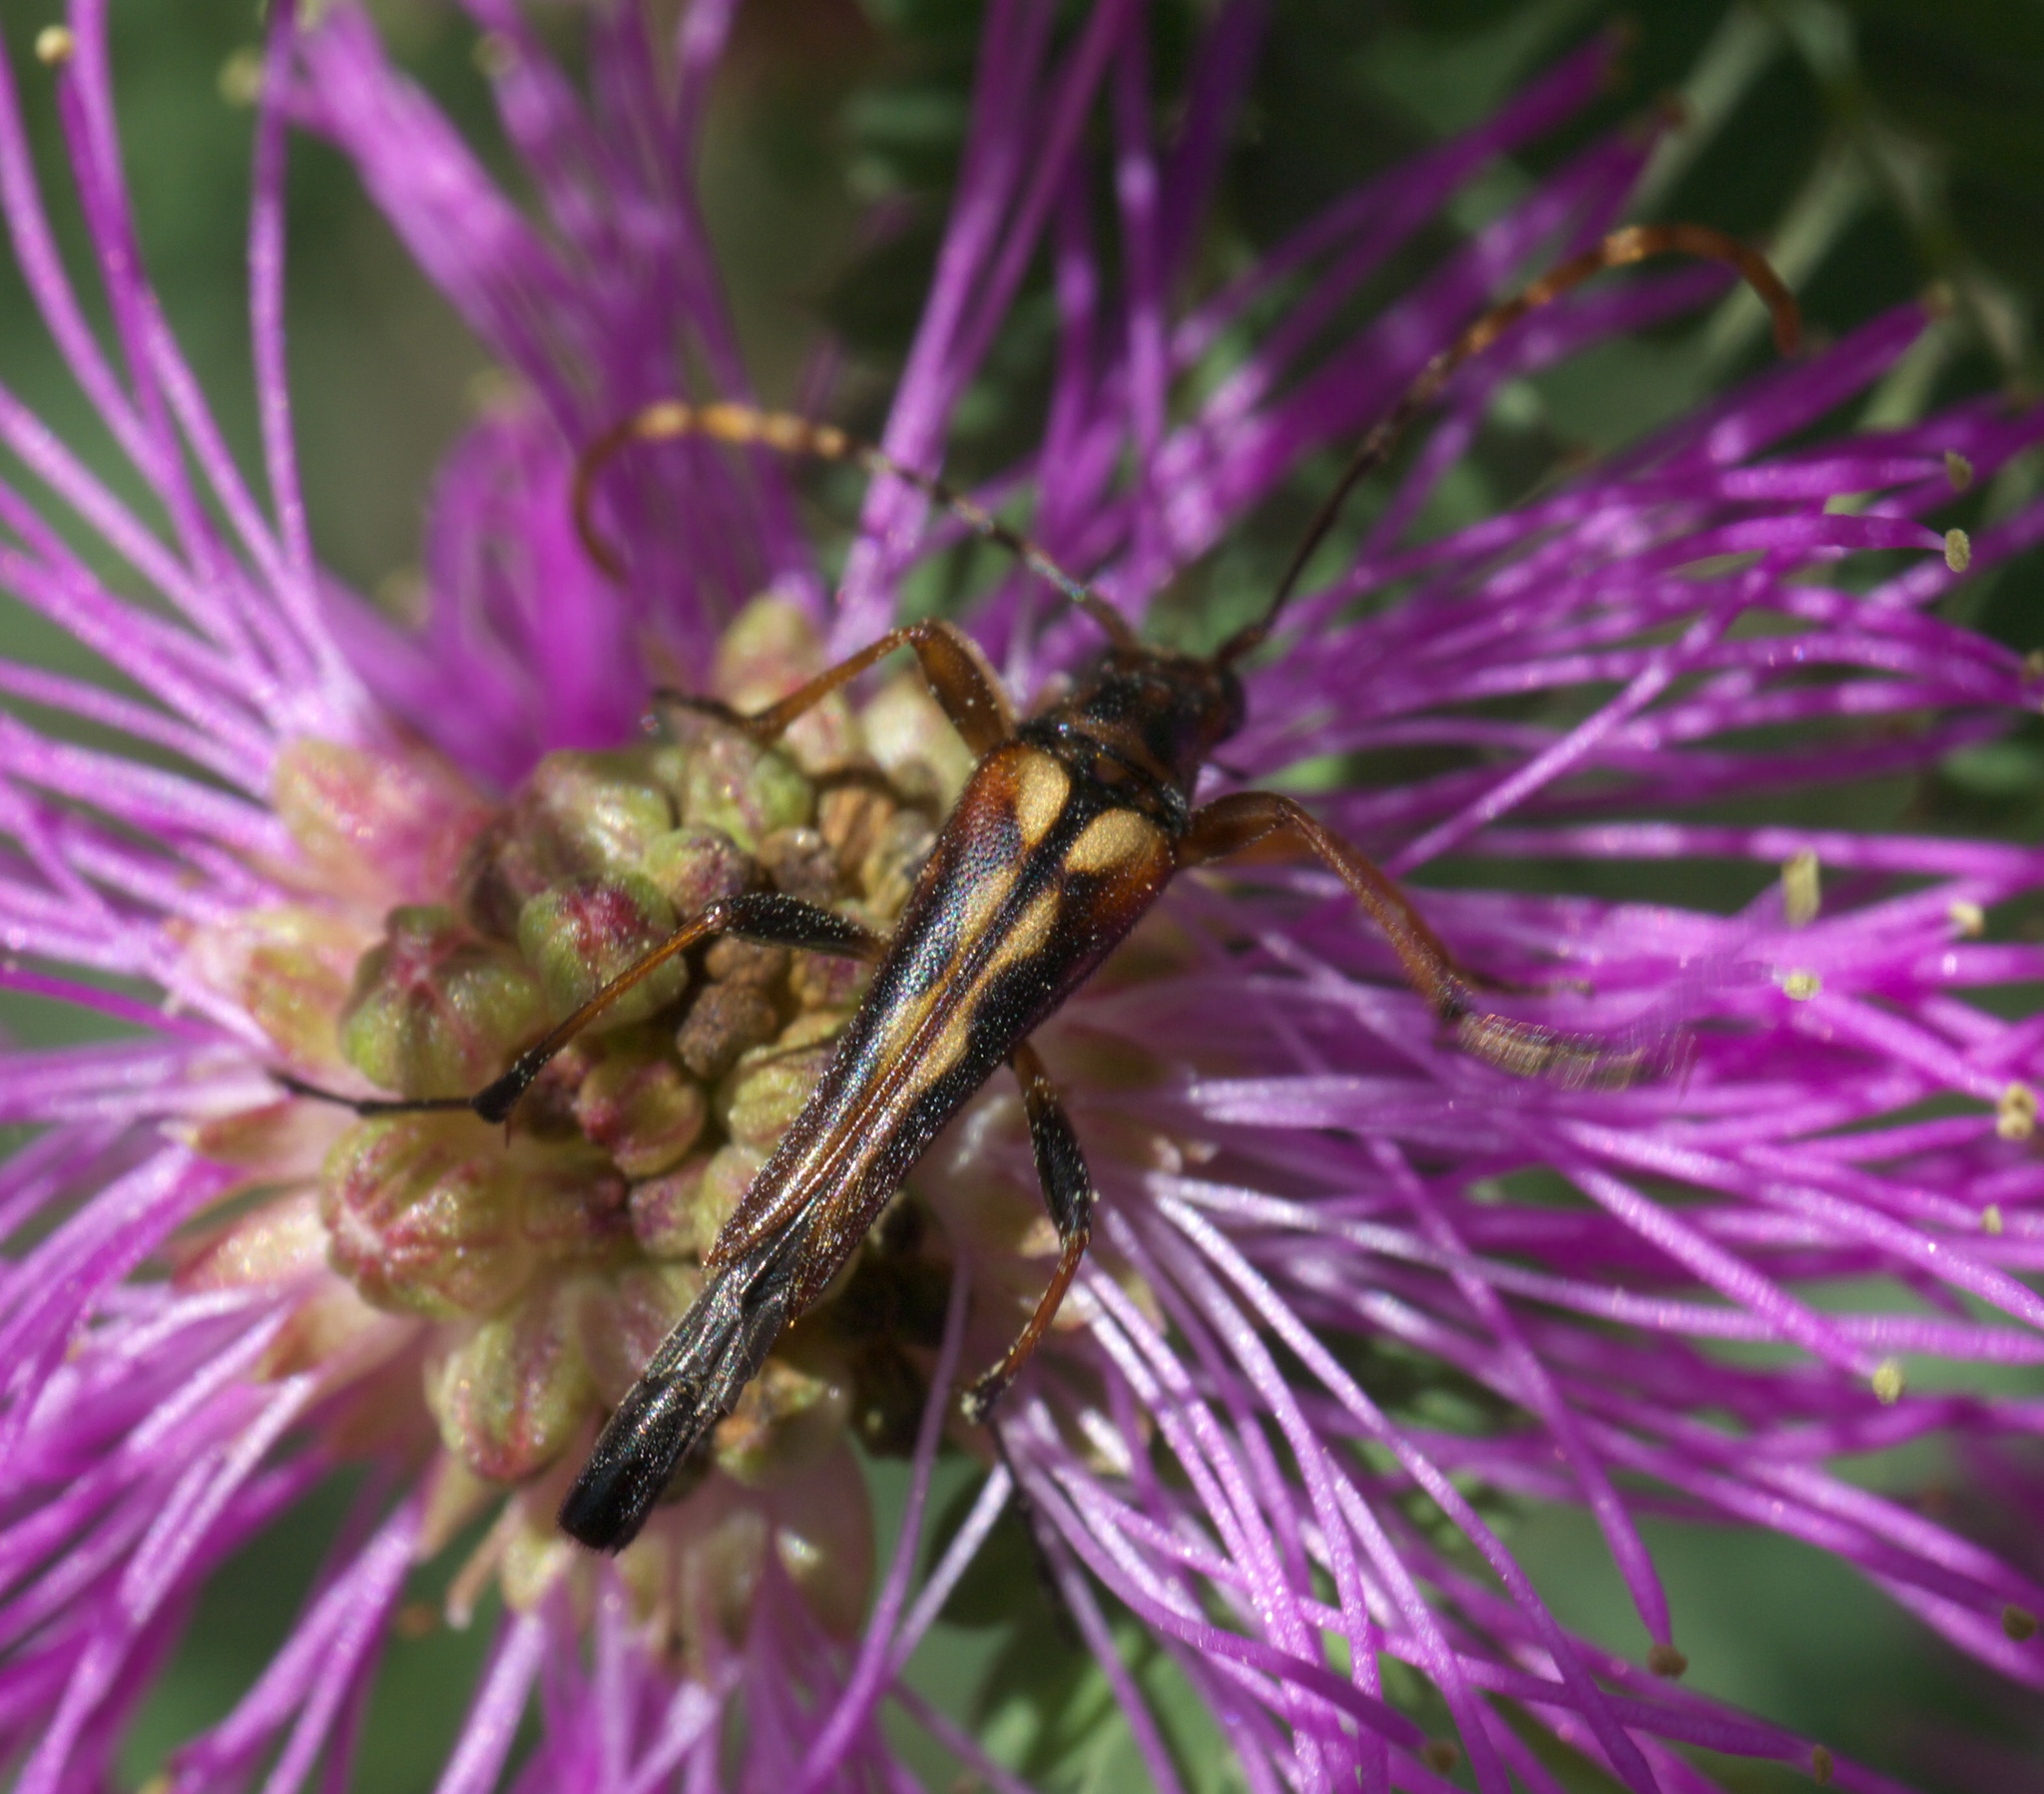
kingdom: Animalia
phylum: Arthropoda
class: Insecta
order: Coleoptera
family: Cerambycidae
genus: Strangalia
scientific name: Strangalia virilis
